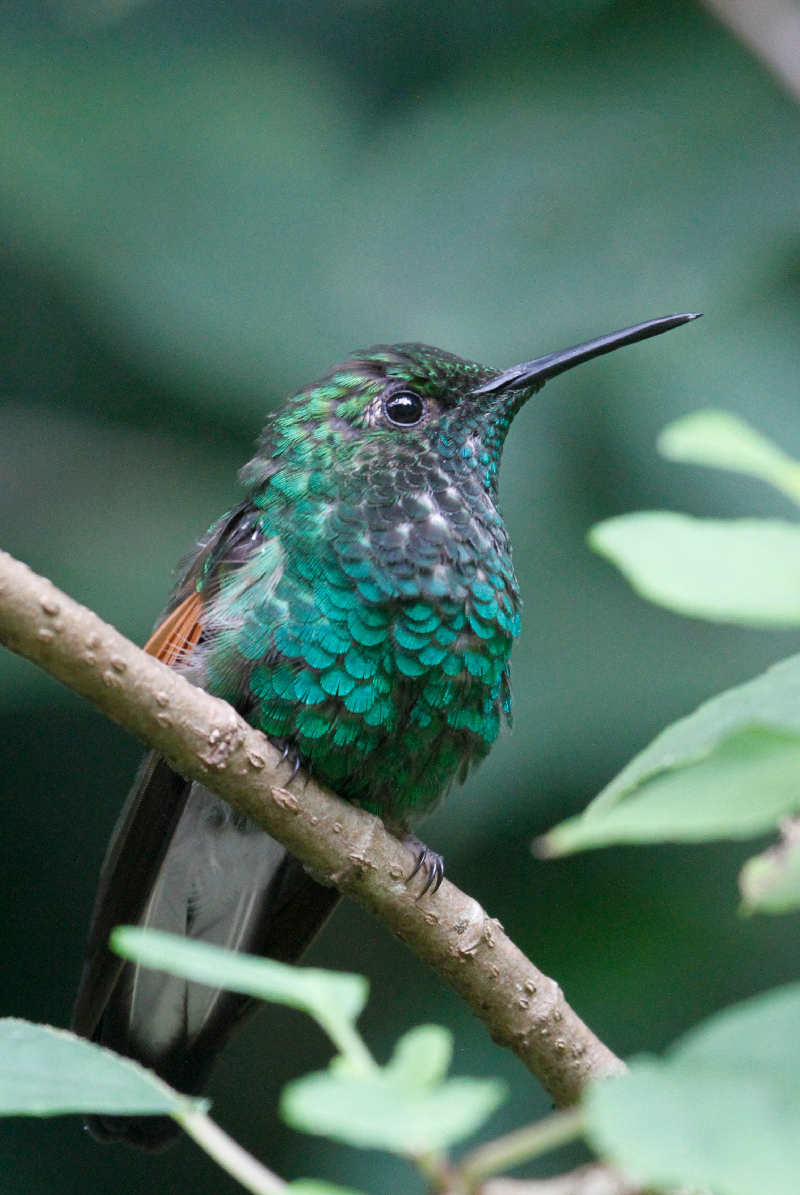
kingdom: Animalia
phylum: Chordata
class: Aves
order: Apodiformes
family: Trochilidae
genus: Eupherusa
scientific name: Eupherusa eximia
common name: Stripe-tailed hummingbird
